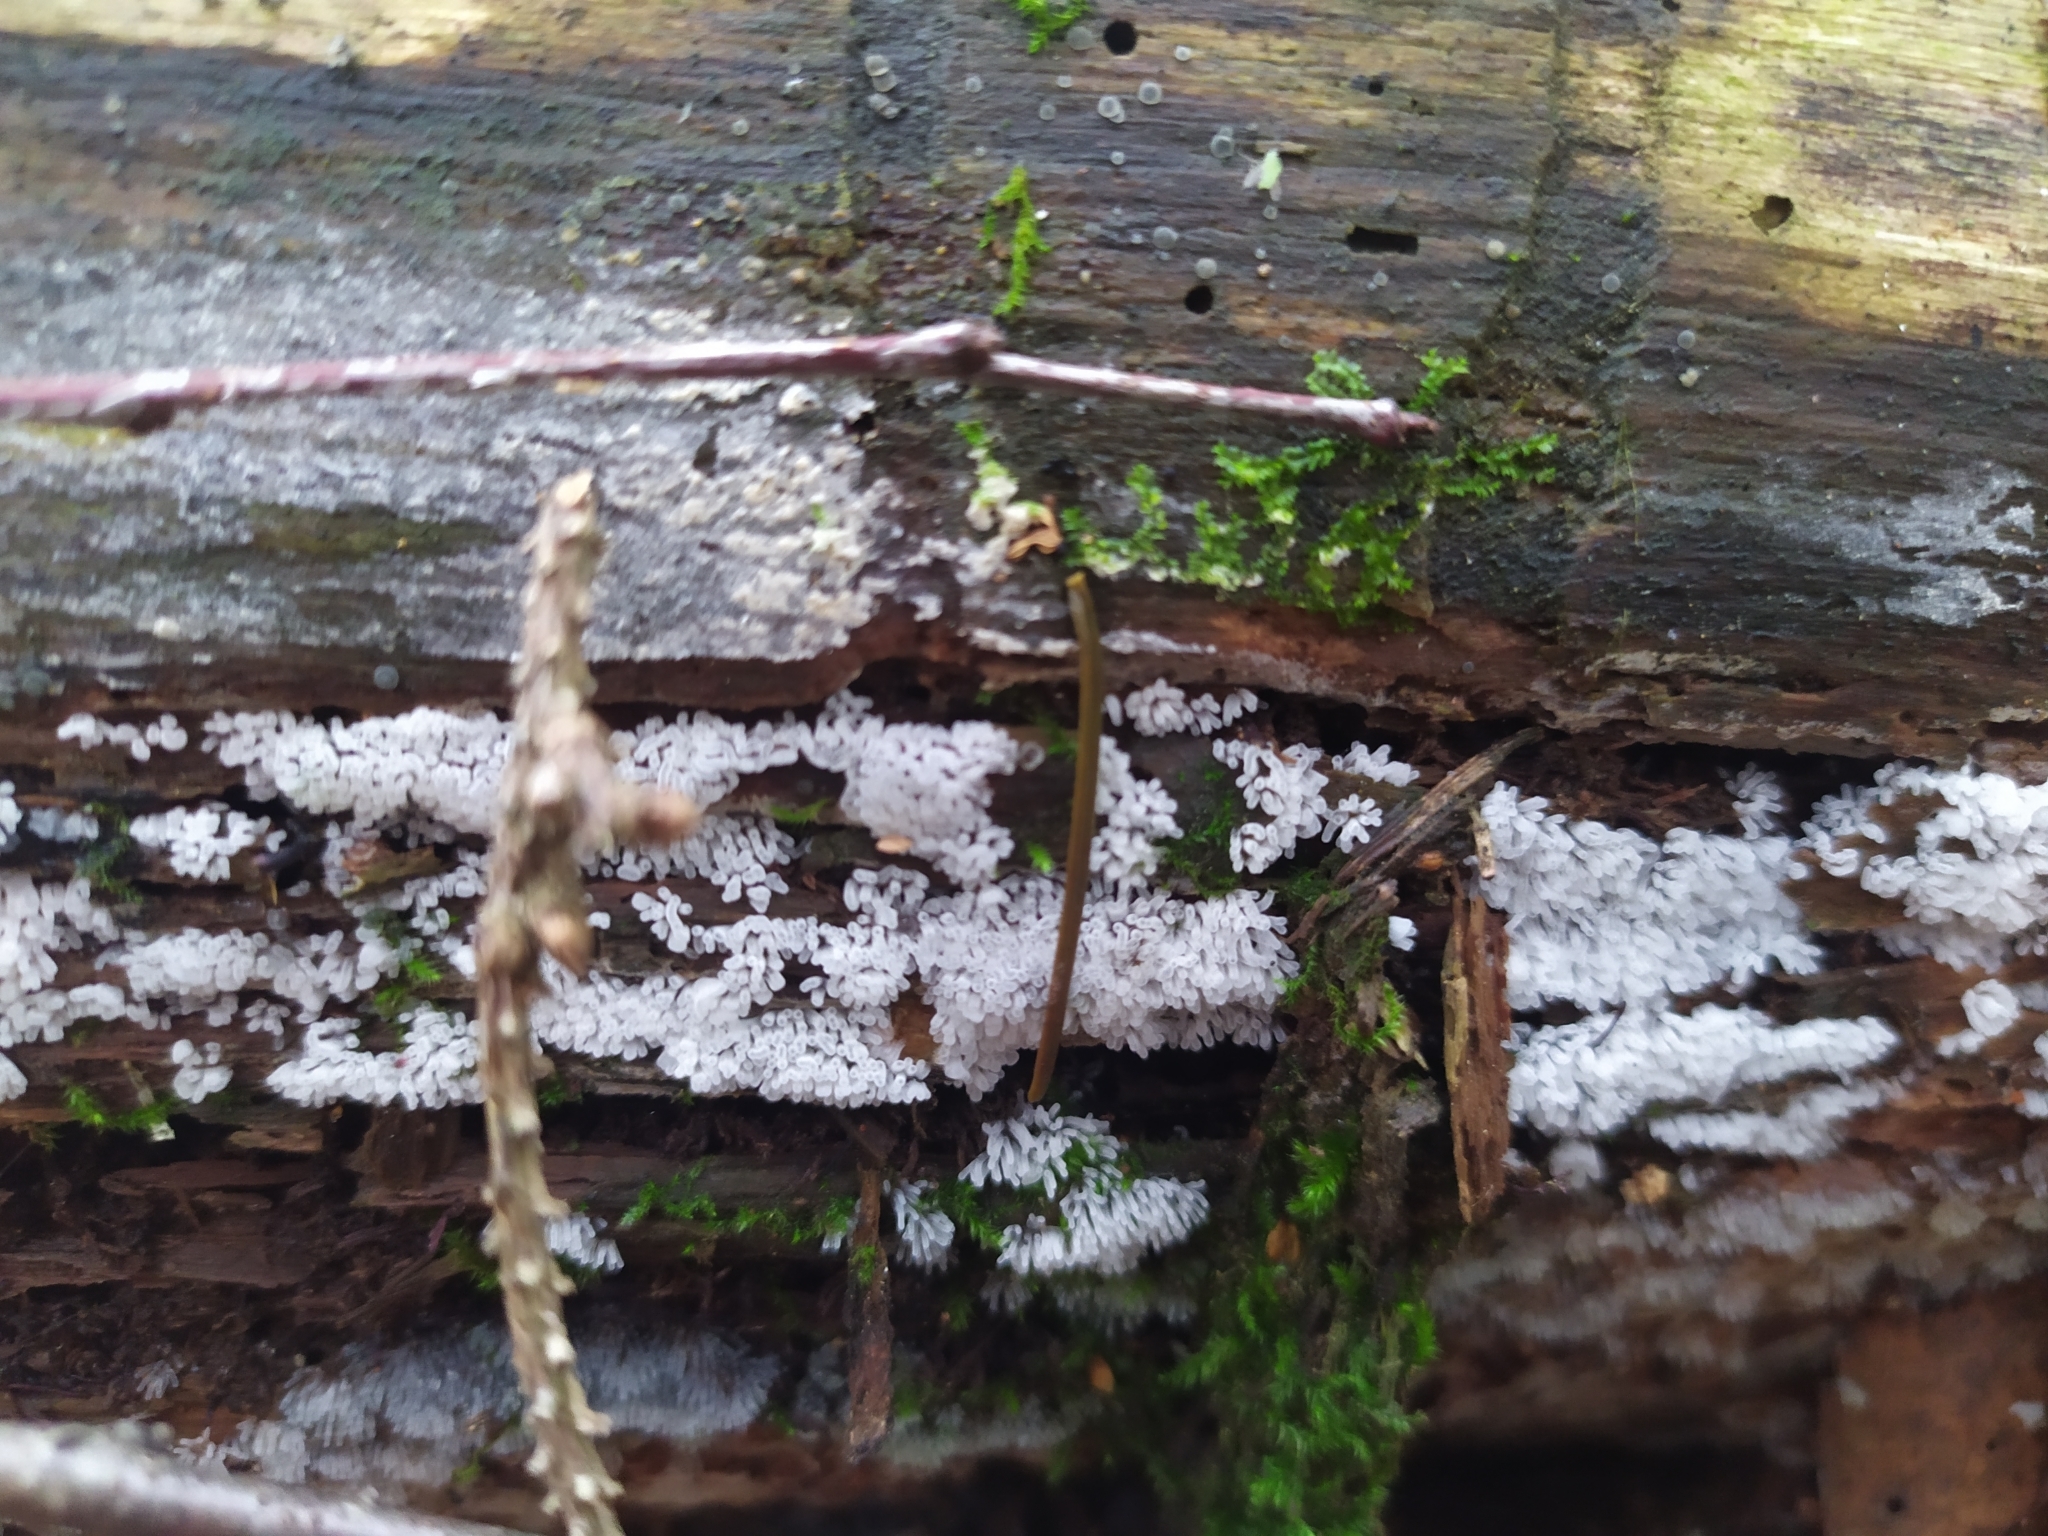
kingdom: Protozoa
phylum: Mycetozoa
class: Protosteliomycetes
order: Ceratiomyxales
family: Ceratiomyxaceae
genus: Ceratiomyxa
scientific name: Ceratiomyxa fruticulosa
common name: Honeycomb coral slime mold
